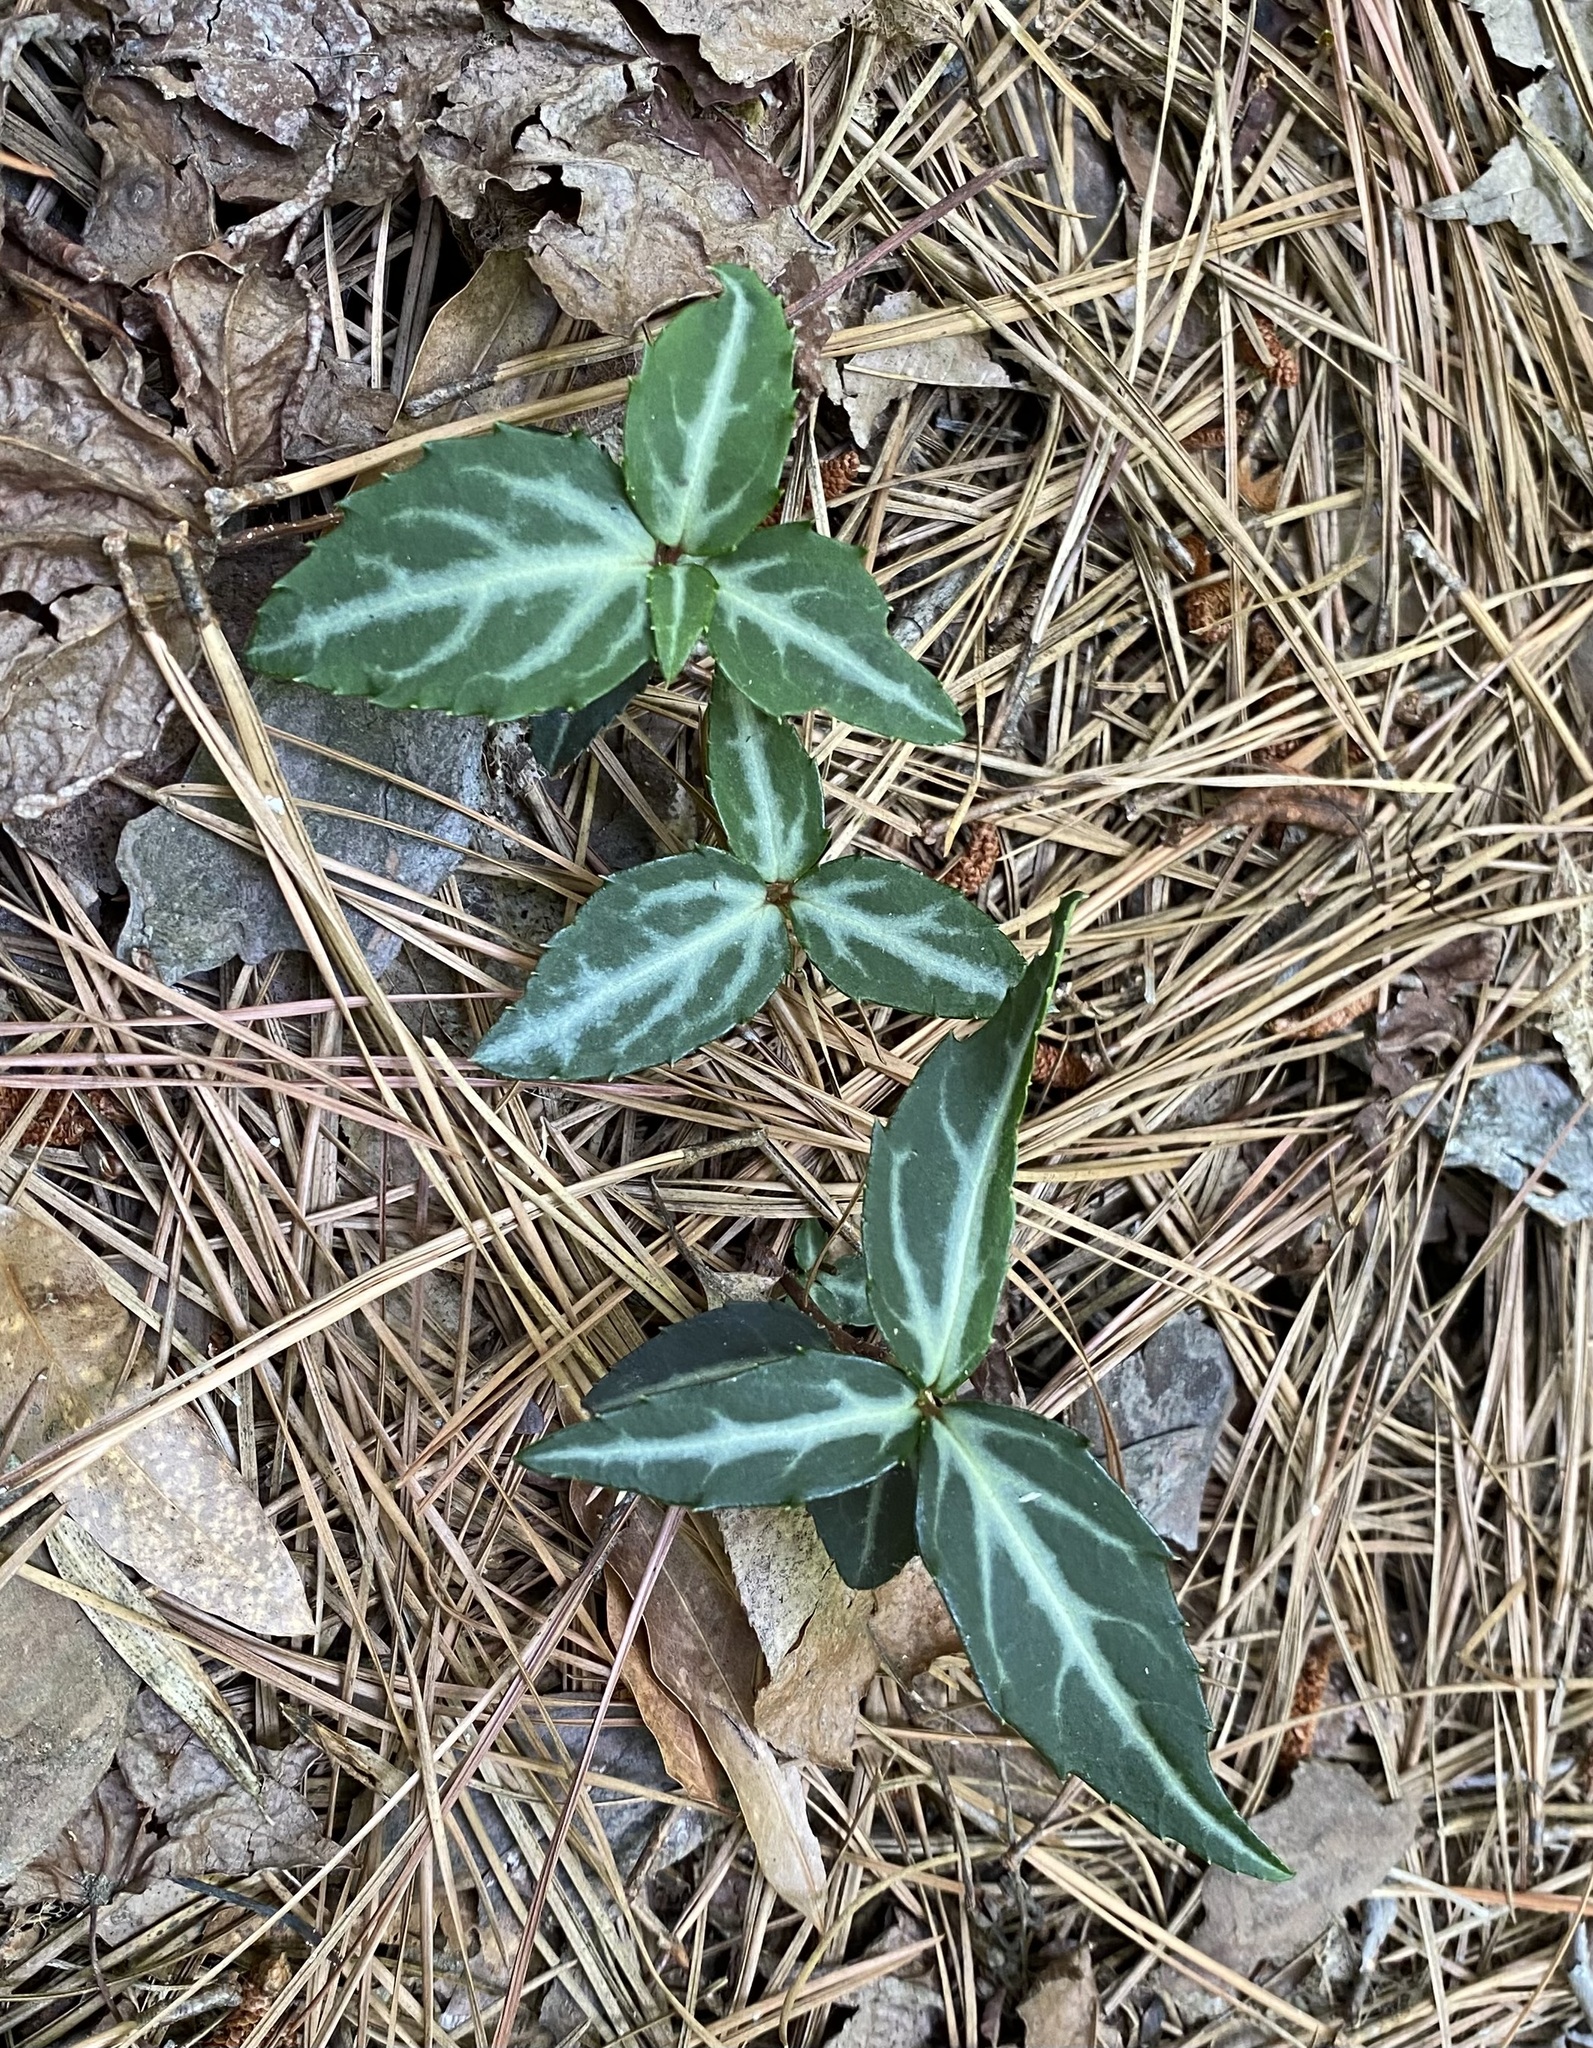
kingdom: Plantae
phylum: Tracheophyta
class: Magnoliopsida
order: Ericales
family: Ericaceae
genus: Chimaphila
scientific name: Chimaphila maculata
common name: Spotted pipsissewa
